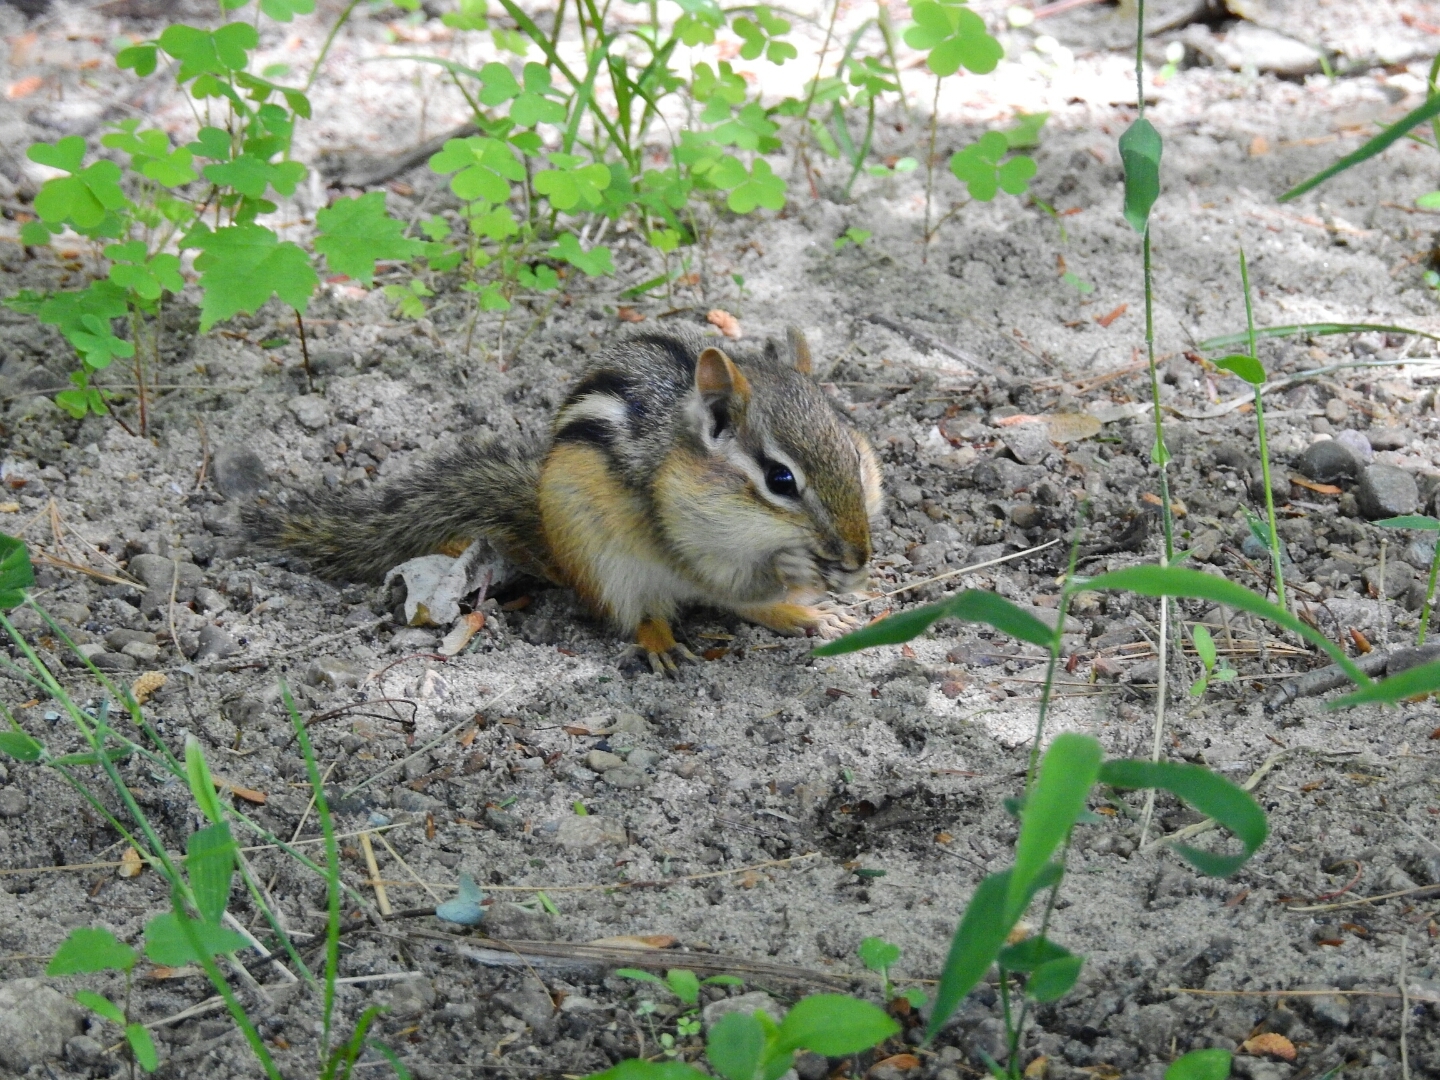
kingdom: Animalia
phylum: Chordata
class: Mammalia
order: Rodentia
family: Sciuridae
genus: Tamias
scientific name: Tamias striatus
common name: Eastern chipmunk
